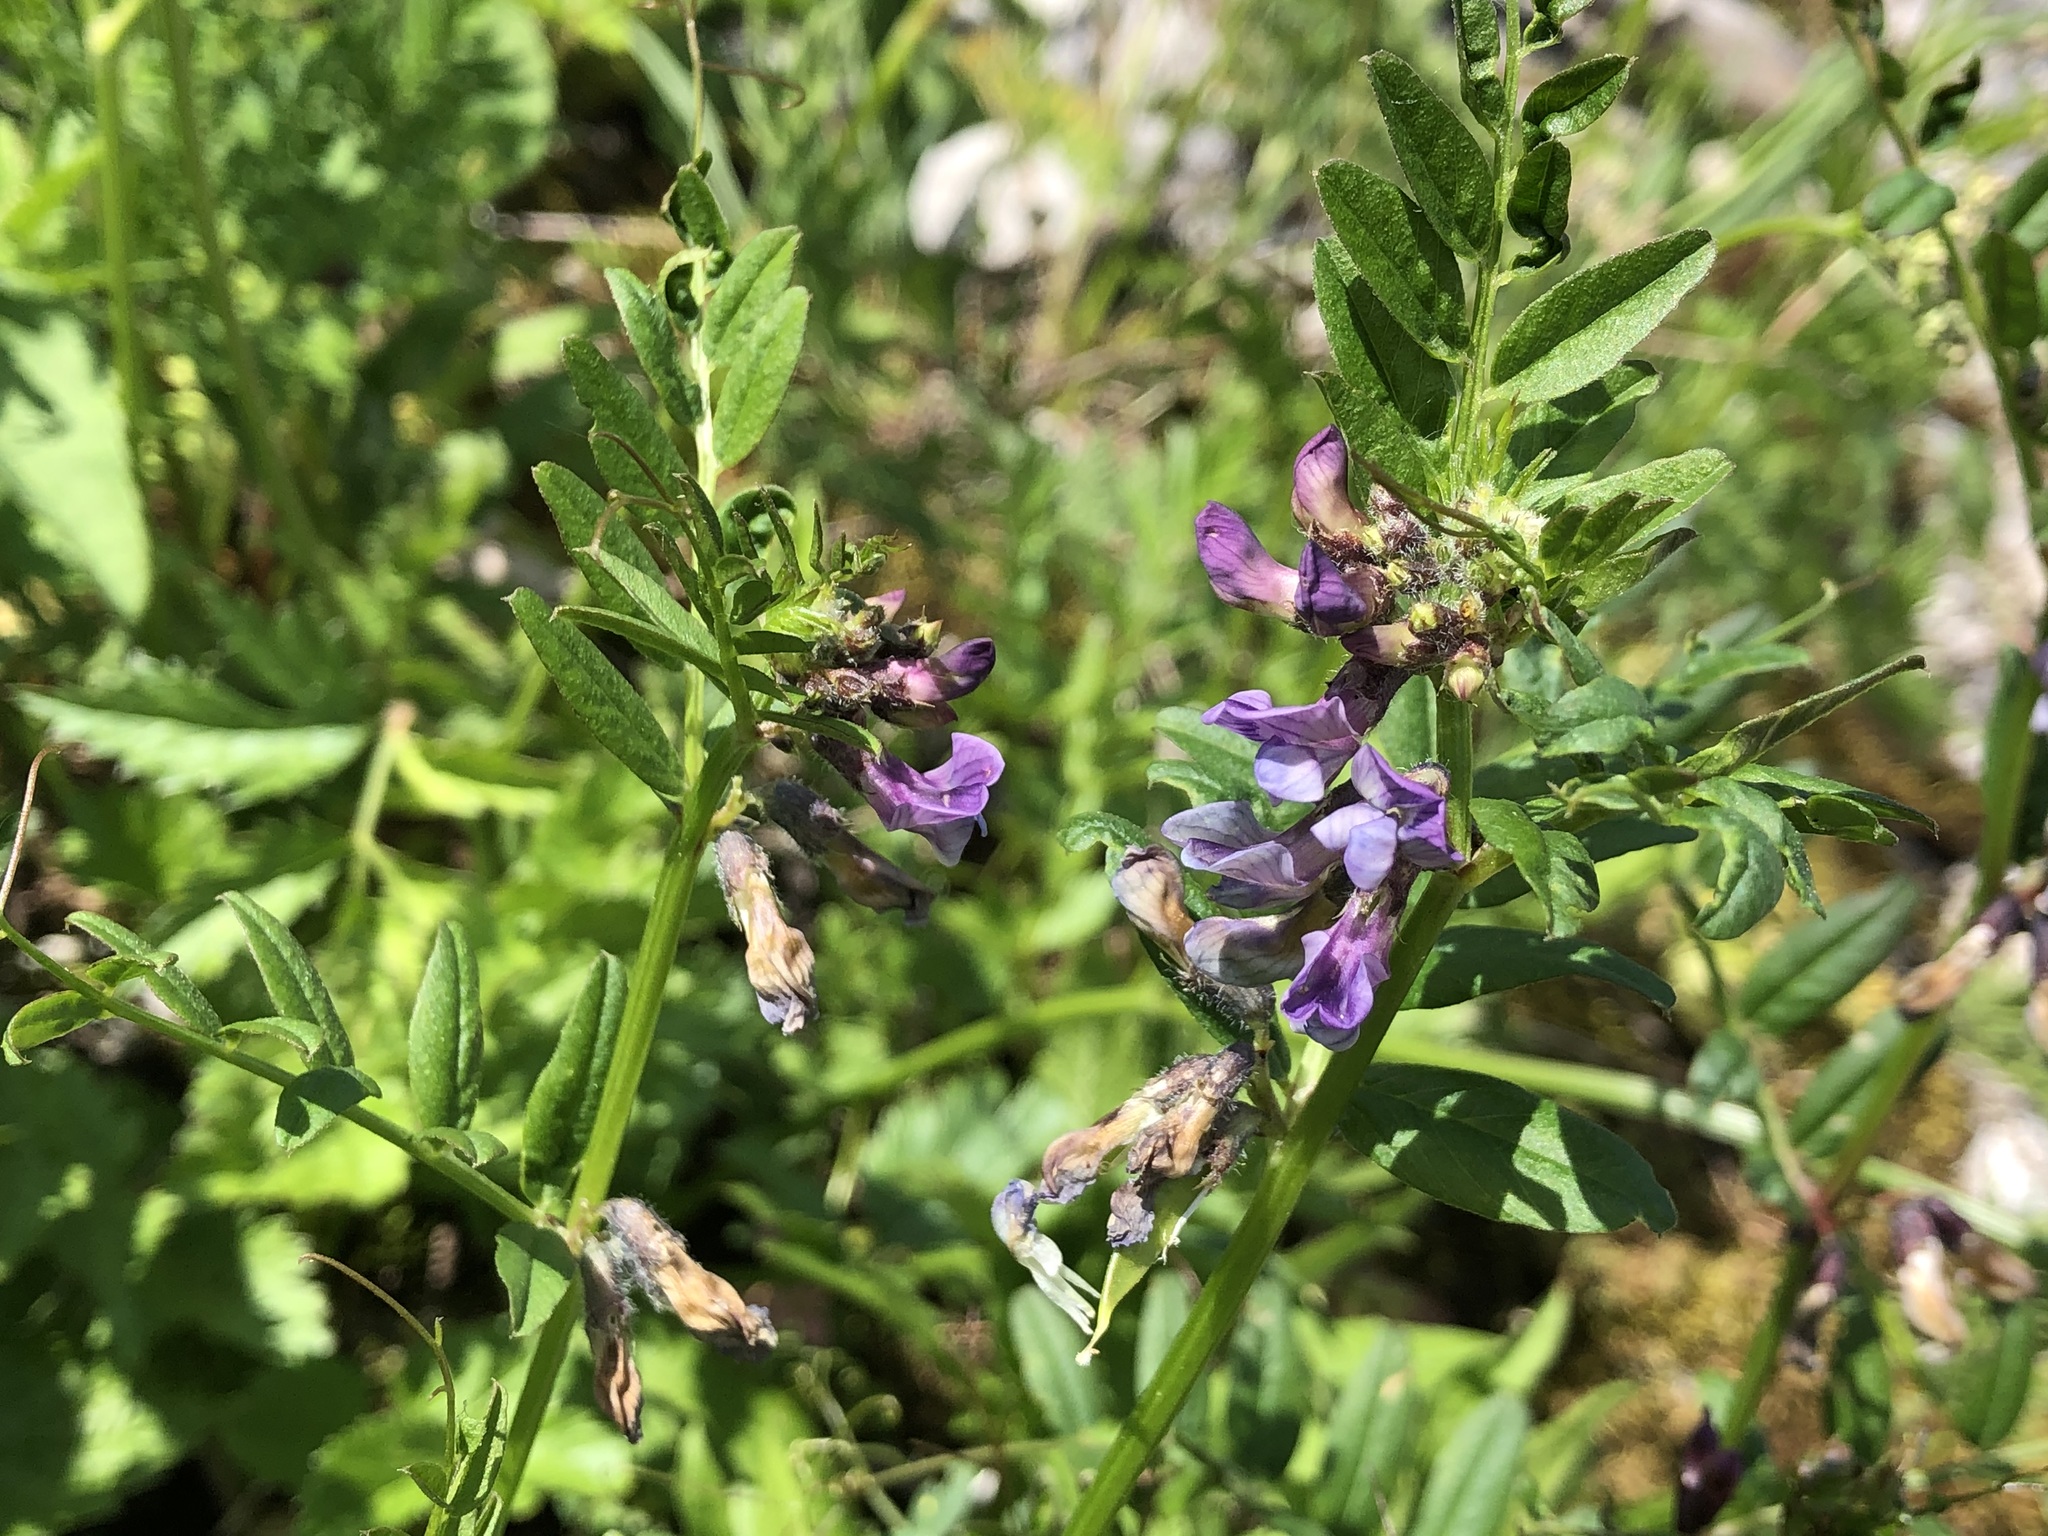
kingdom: Plantae
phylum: Tracheophyta
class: Magnoliopsida
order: Fabales
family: Fabaceae
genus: Vicia
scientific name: Vicia sepium
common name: Bush vetch
